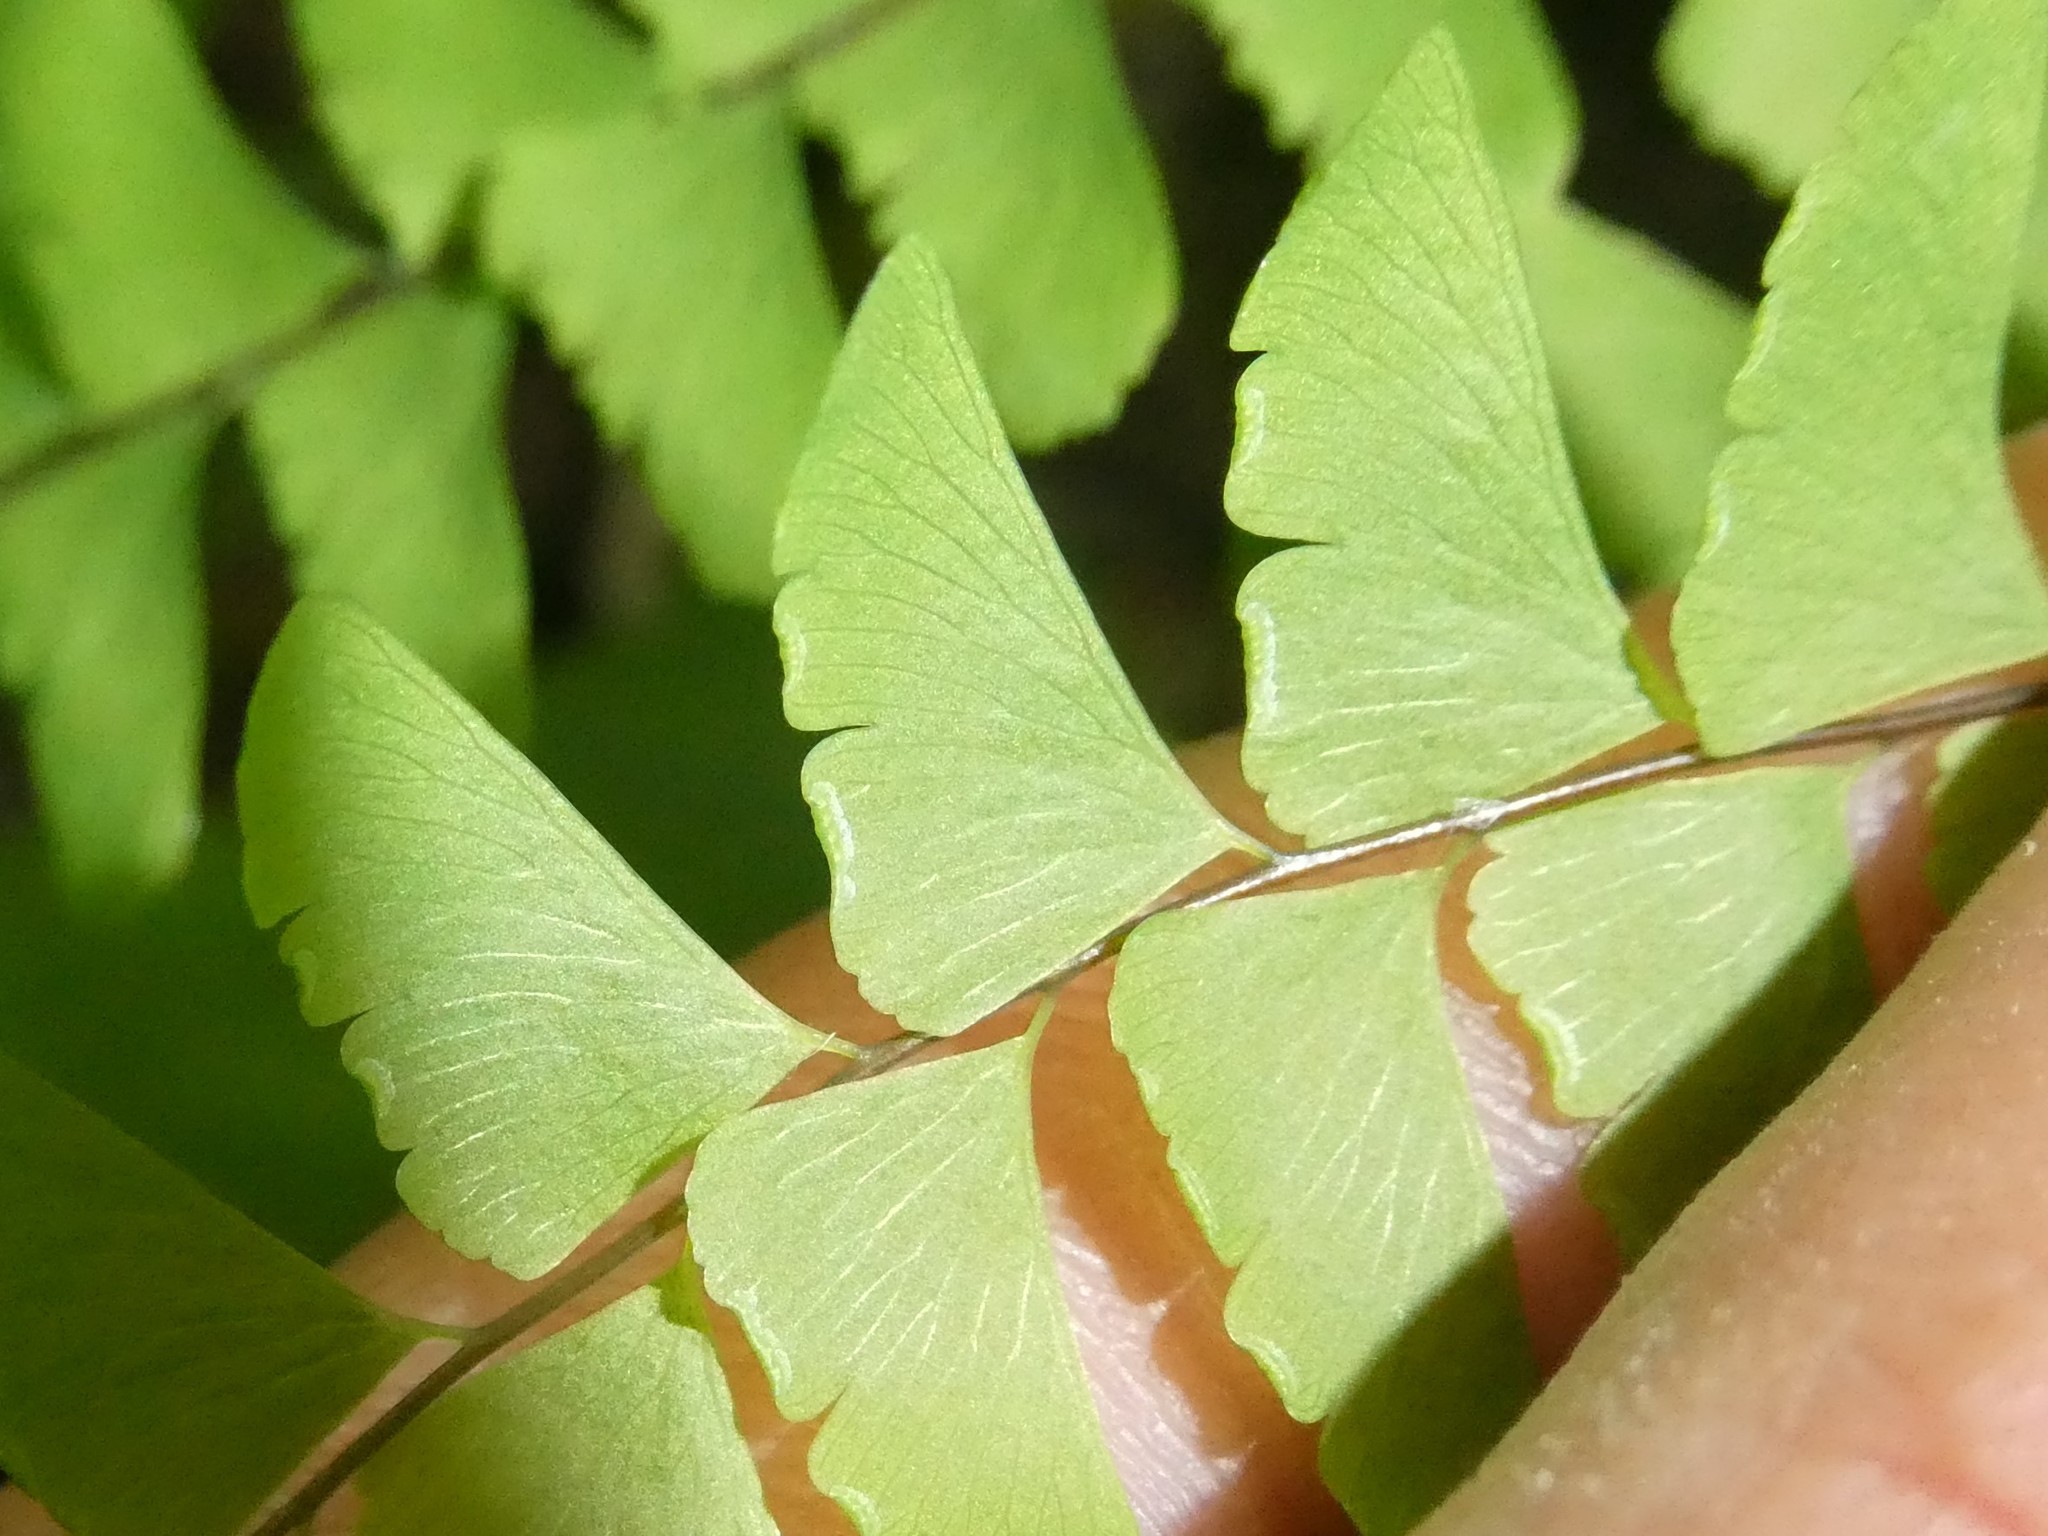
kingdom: Plantae
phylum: Tracheophyta
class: Polypodiopsida
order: Polypodiales
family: Pteridaceae
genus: Adiantum
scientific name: Adiantum pedatum
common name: Five-finger fern
